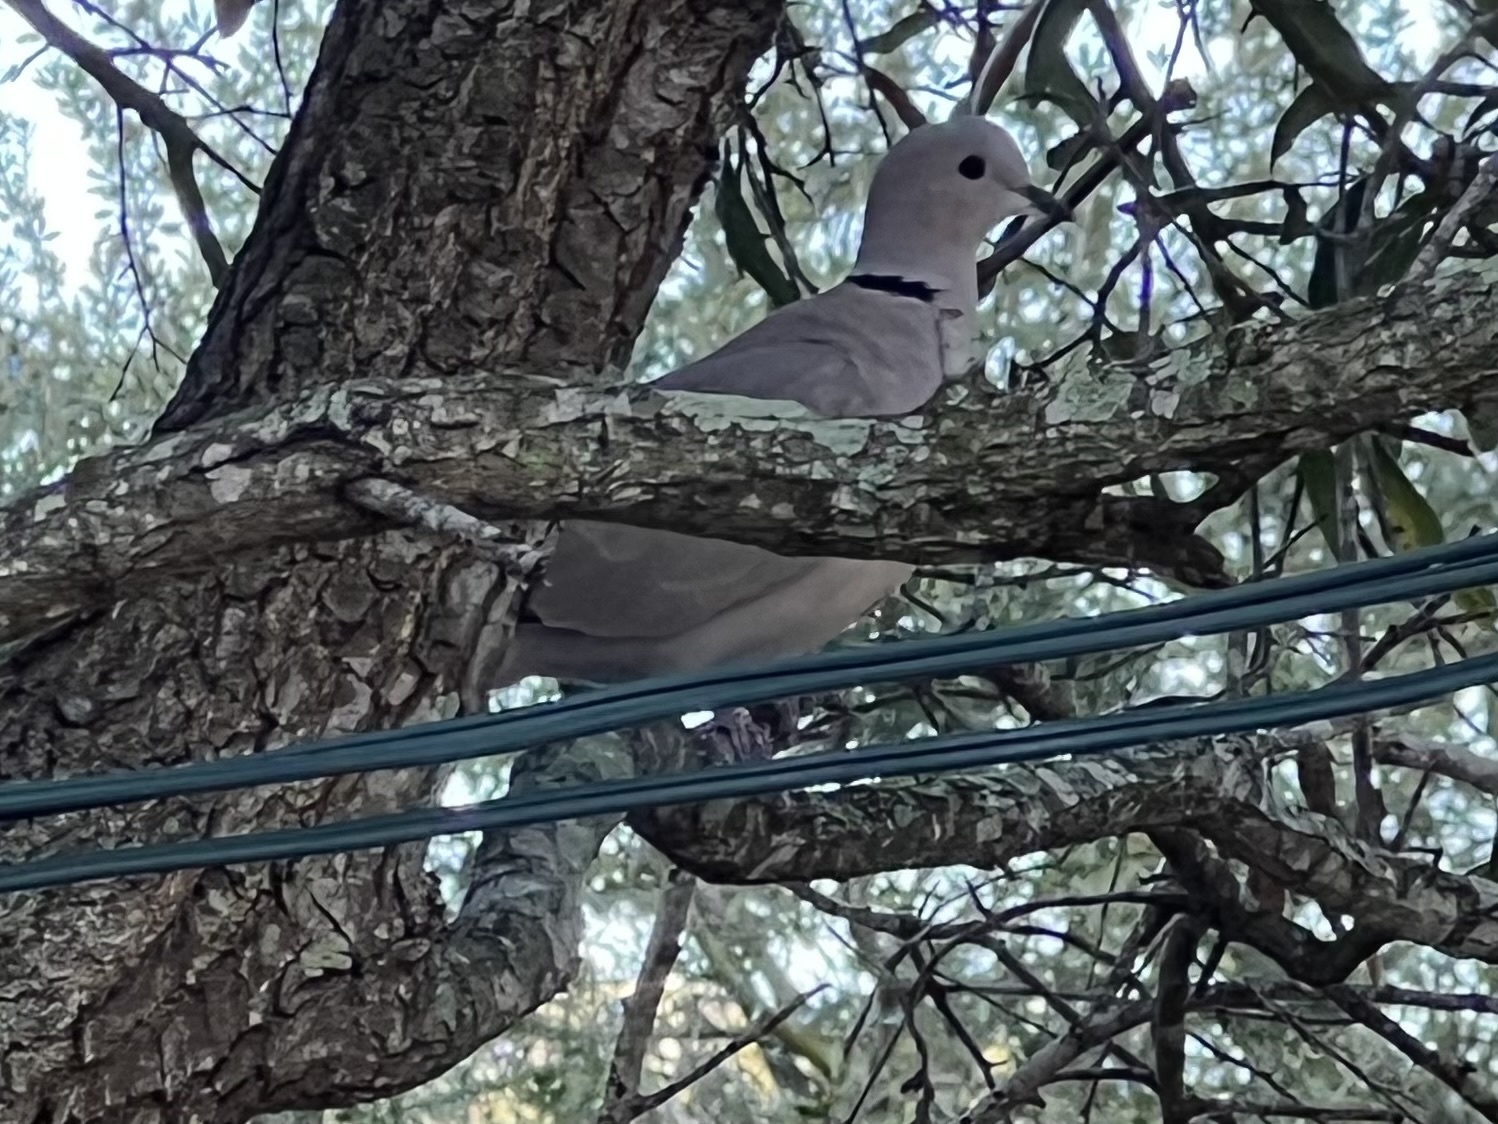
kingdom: Animalia
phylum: Chordata
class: Aves
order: Columbiformes
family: Columbidae
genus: Streptopelia
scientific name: Streptopelia decaocto
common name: Eurasian collared dove
